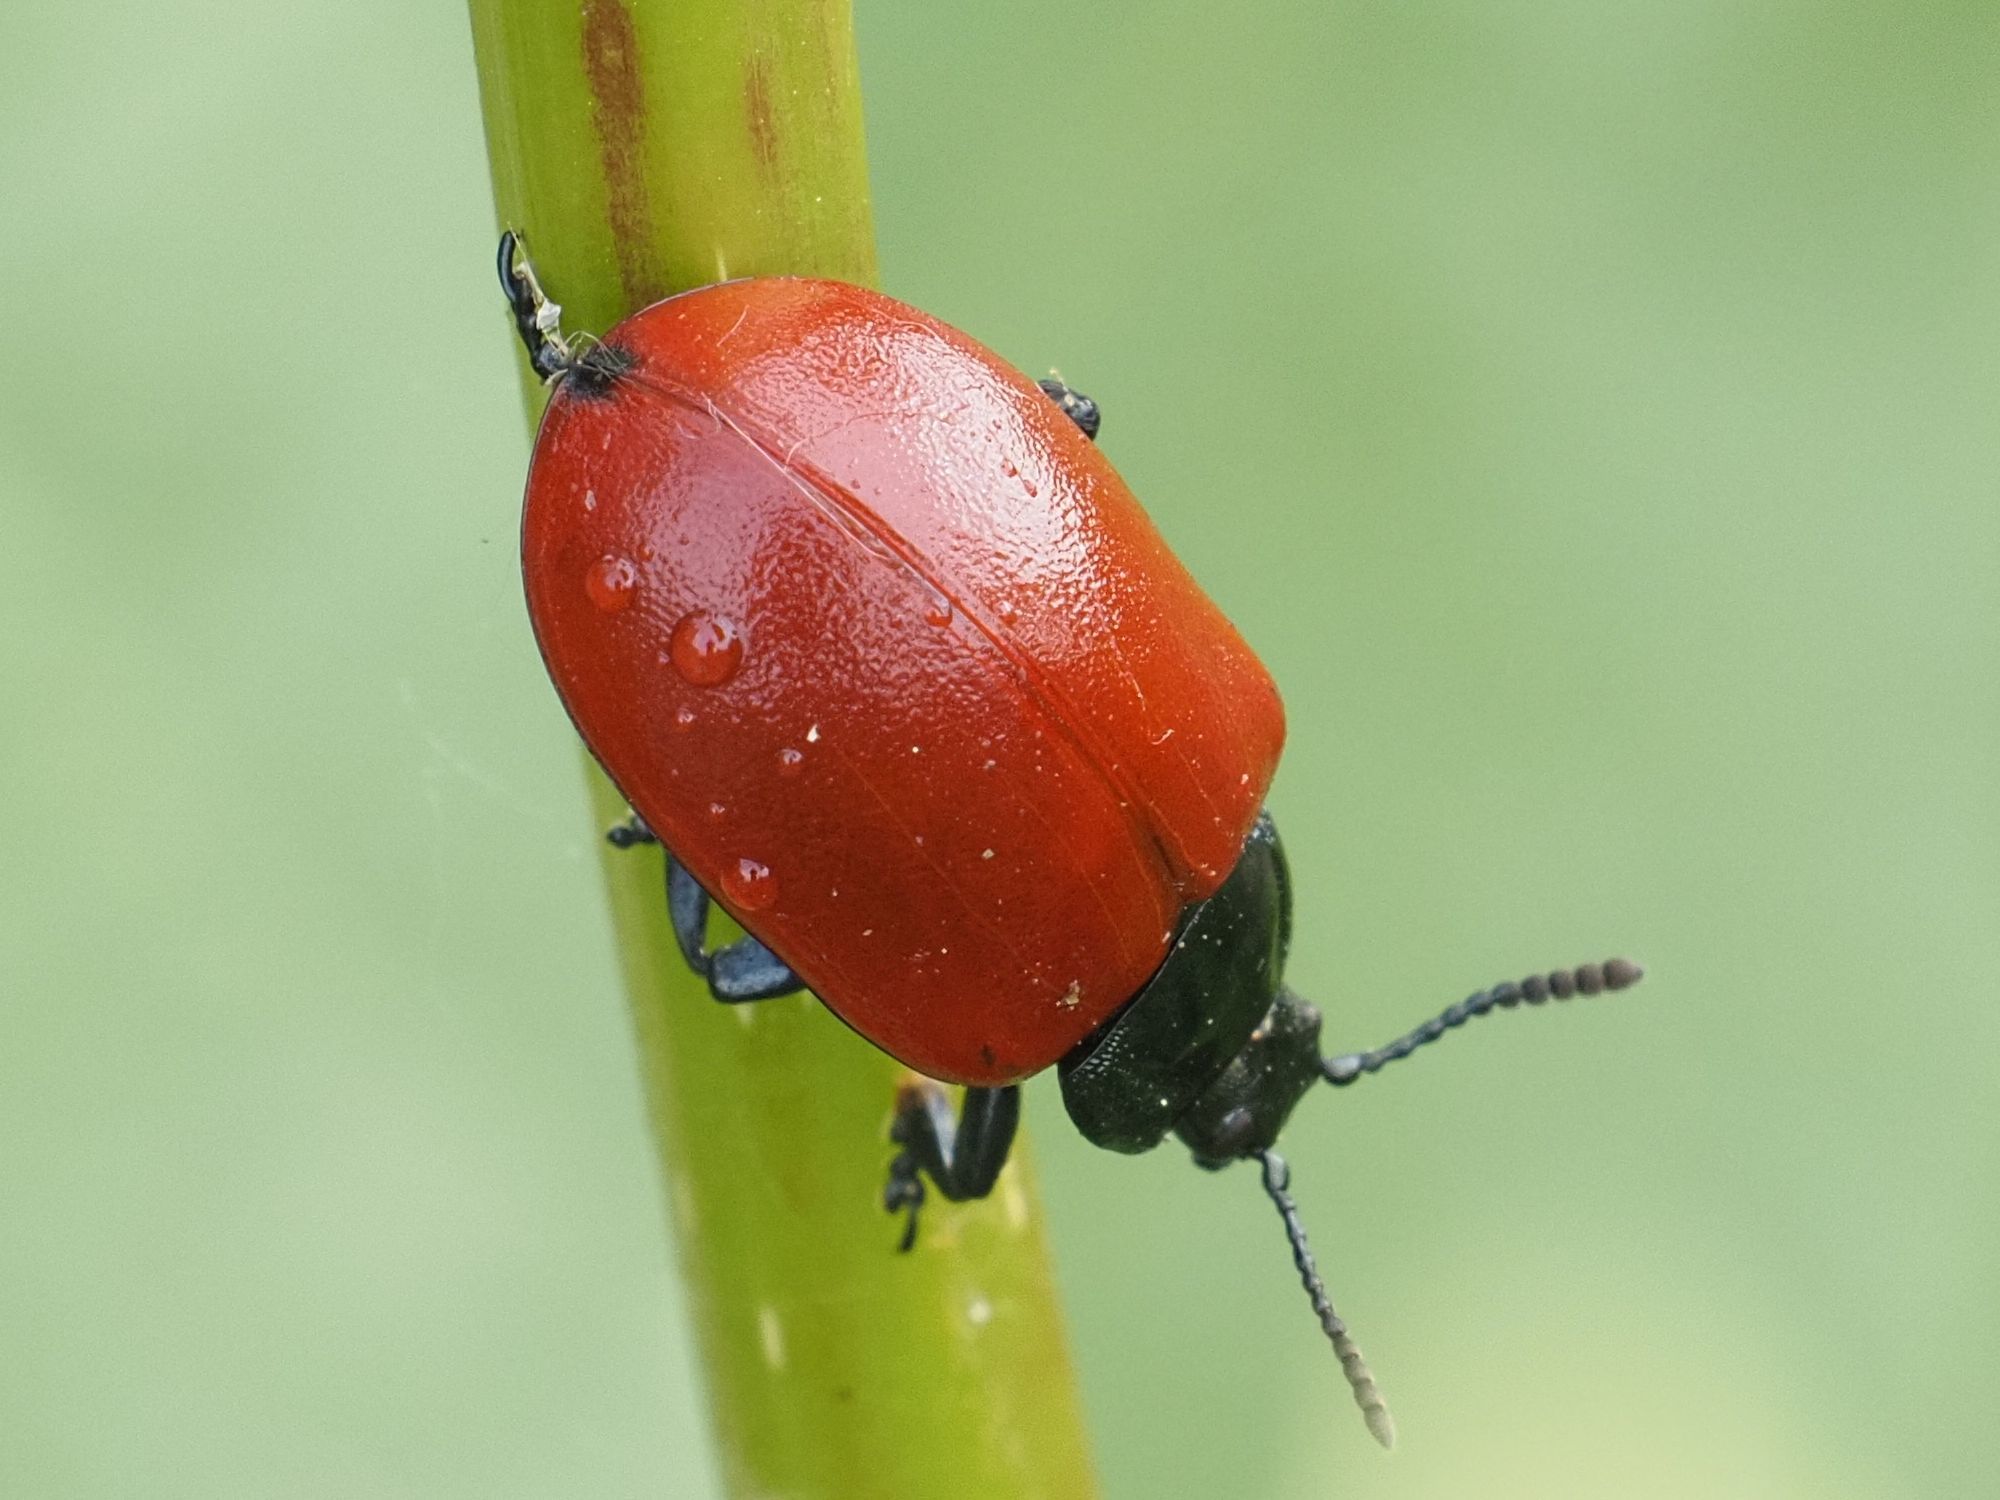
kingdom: Animalia
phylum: Arthropoda
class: Insecta
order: Coleoptera
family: Chrysomelidae
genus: Chrysomela
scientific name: Chrysomela populi
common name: Red poplar leaf beetle
